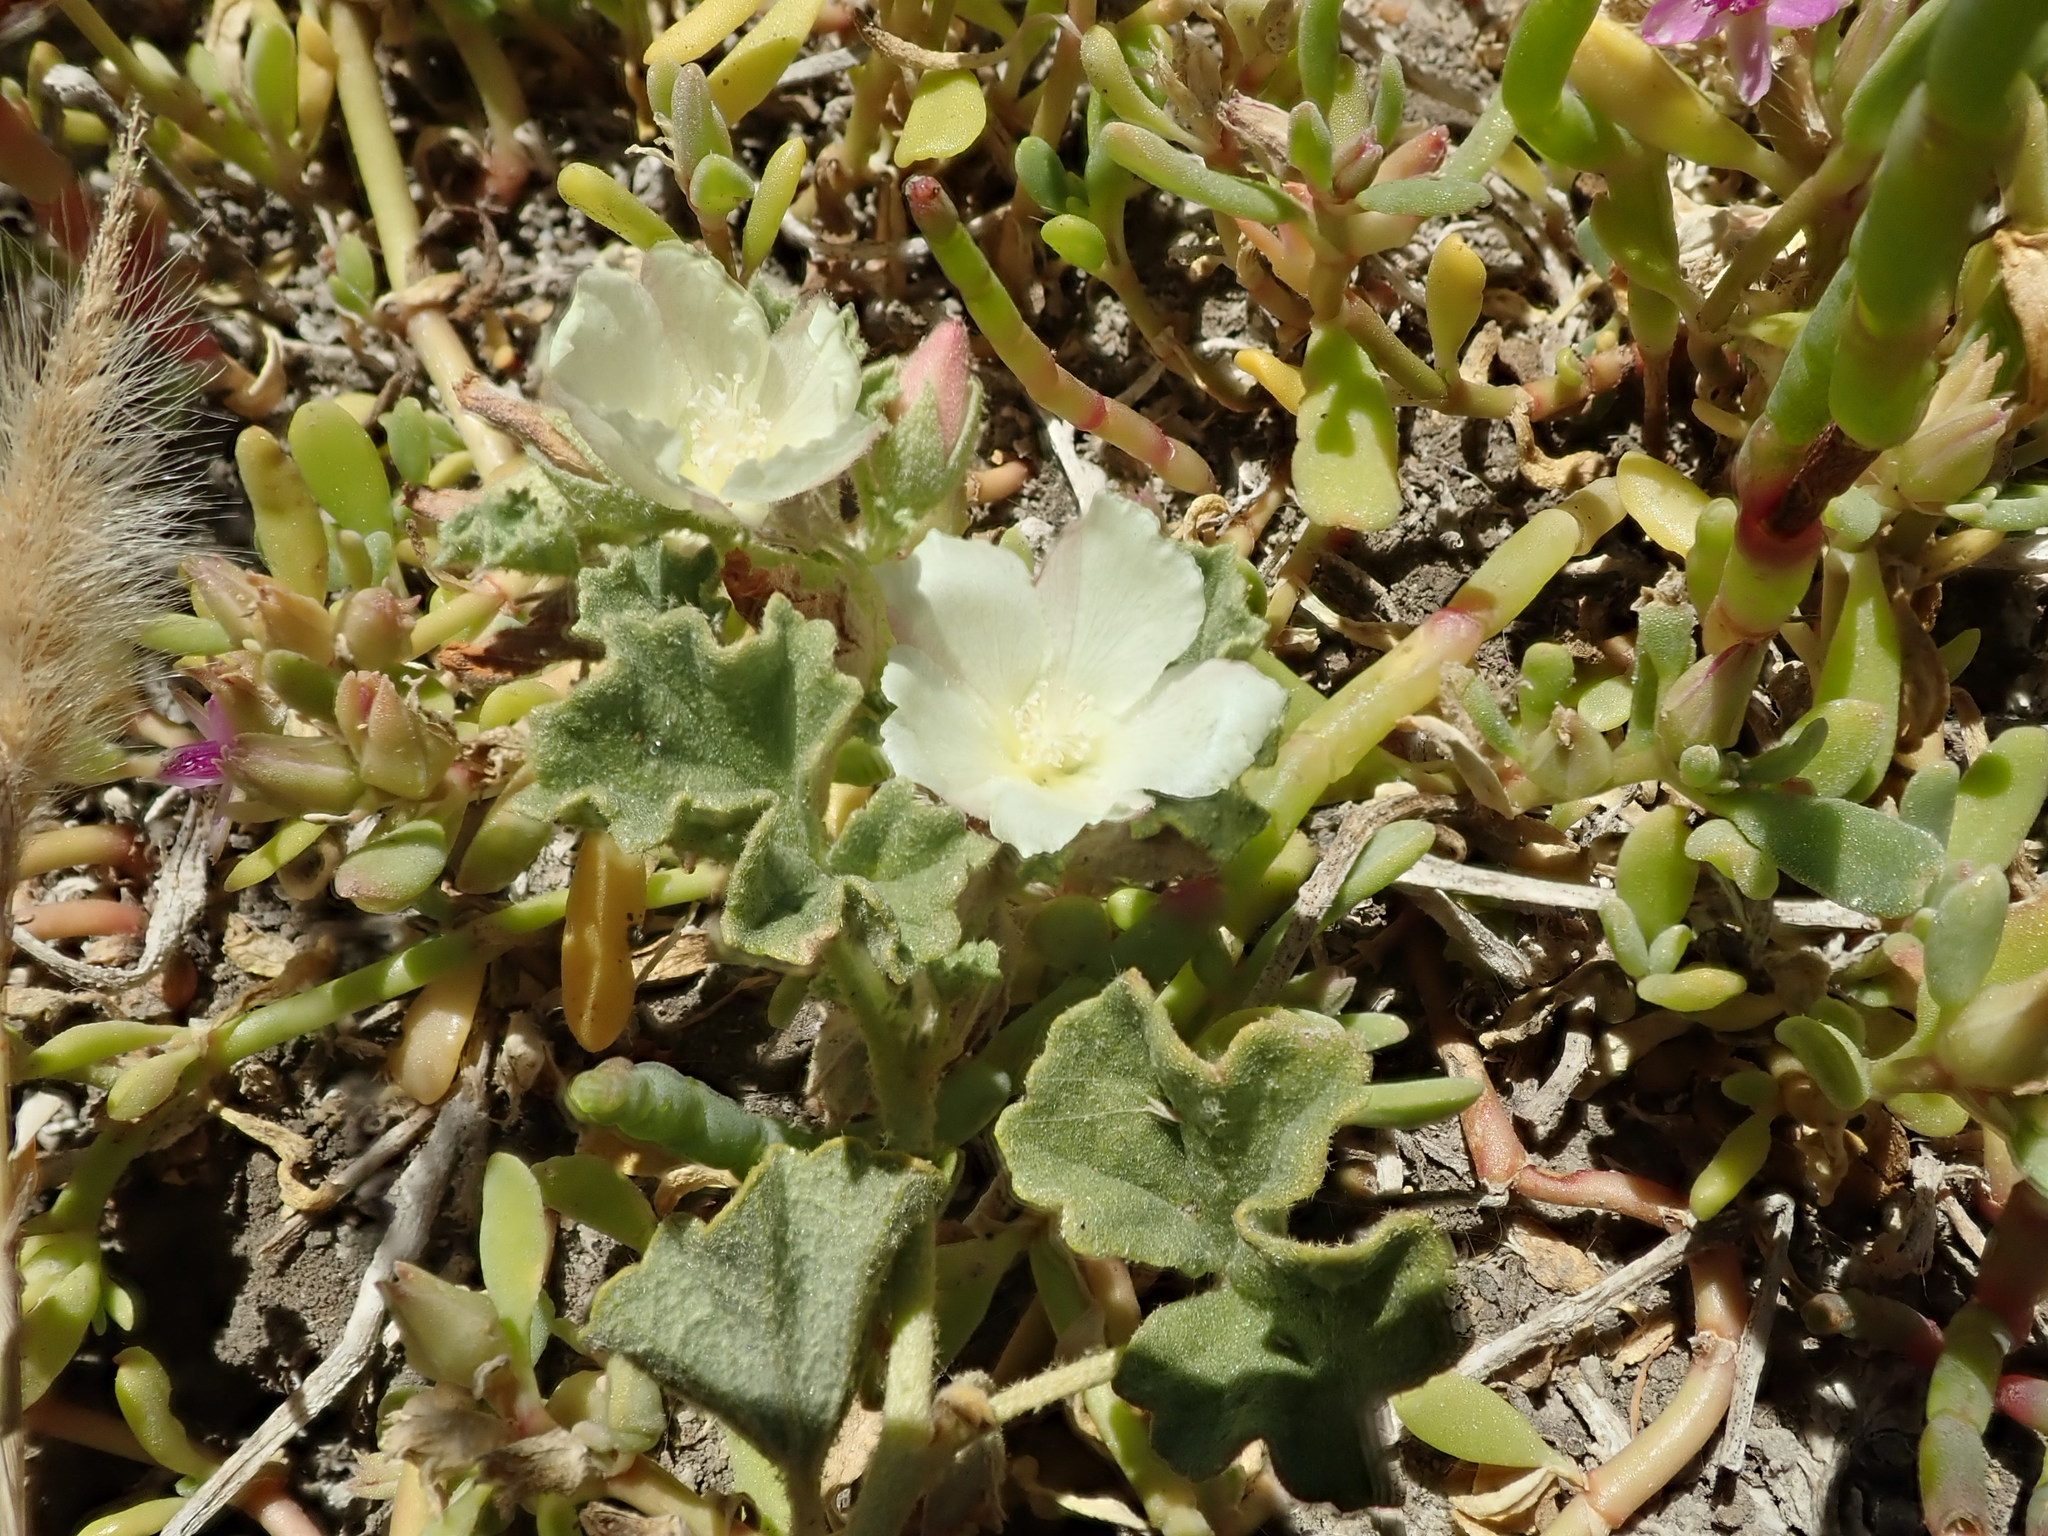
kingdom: Plantae
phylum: Tracheophyta
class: Magnoliopsida
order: Malvales
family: Malvaceae
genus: Malvella
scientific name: Malvella leprosa
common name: Alkali-mallow
